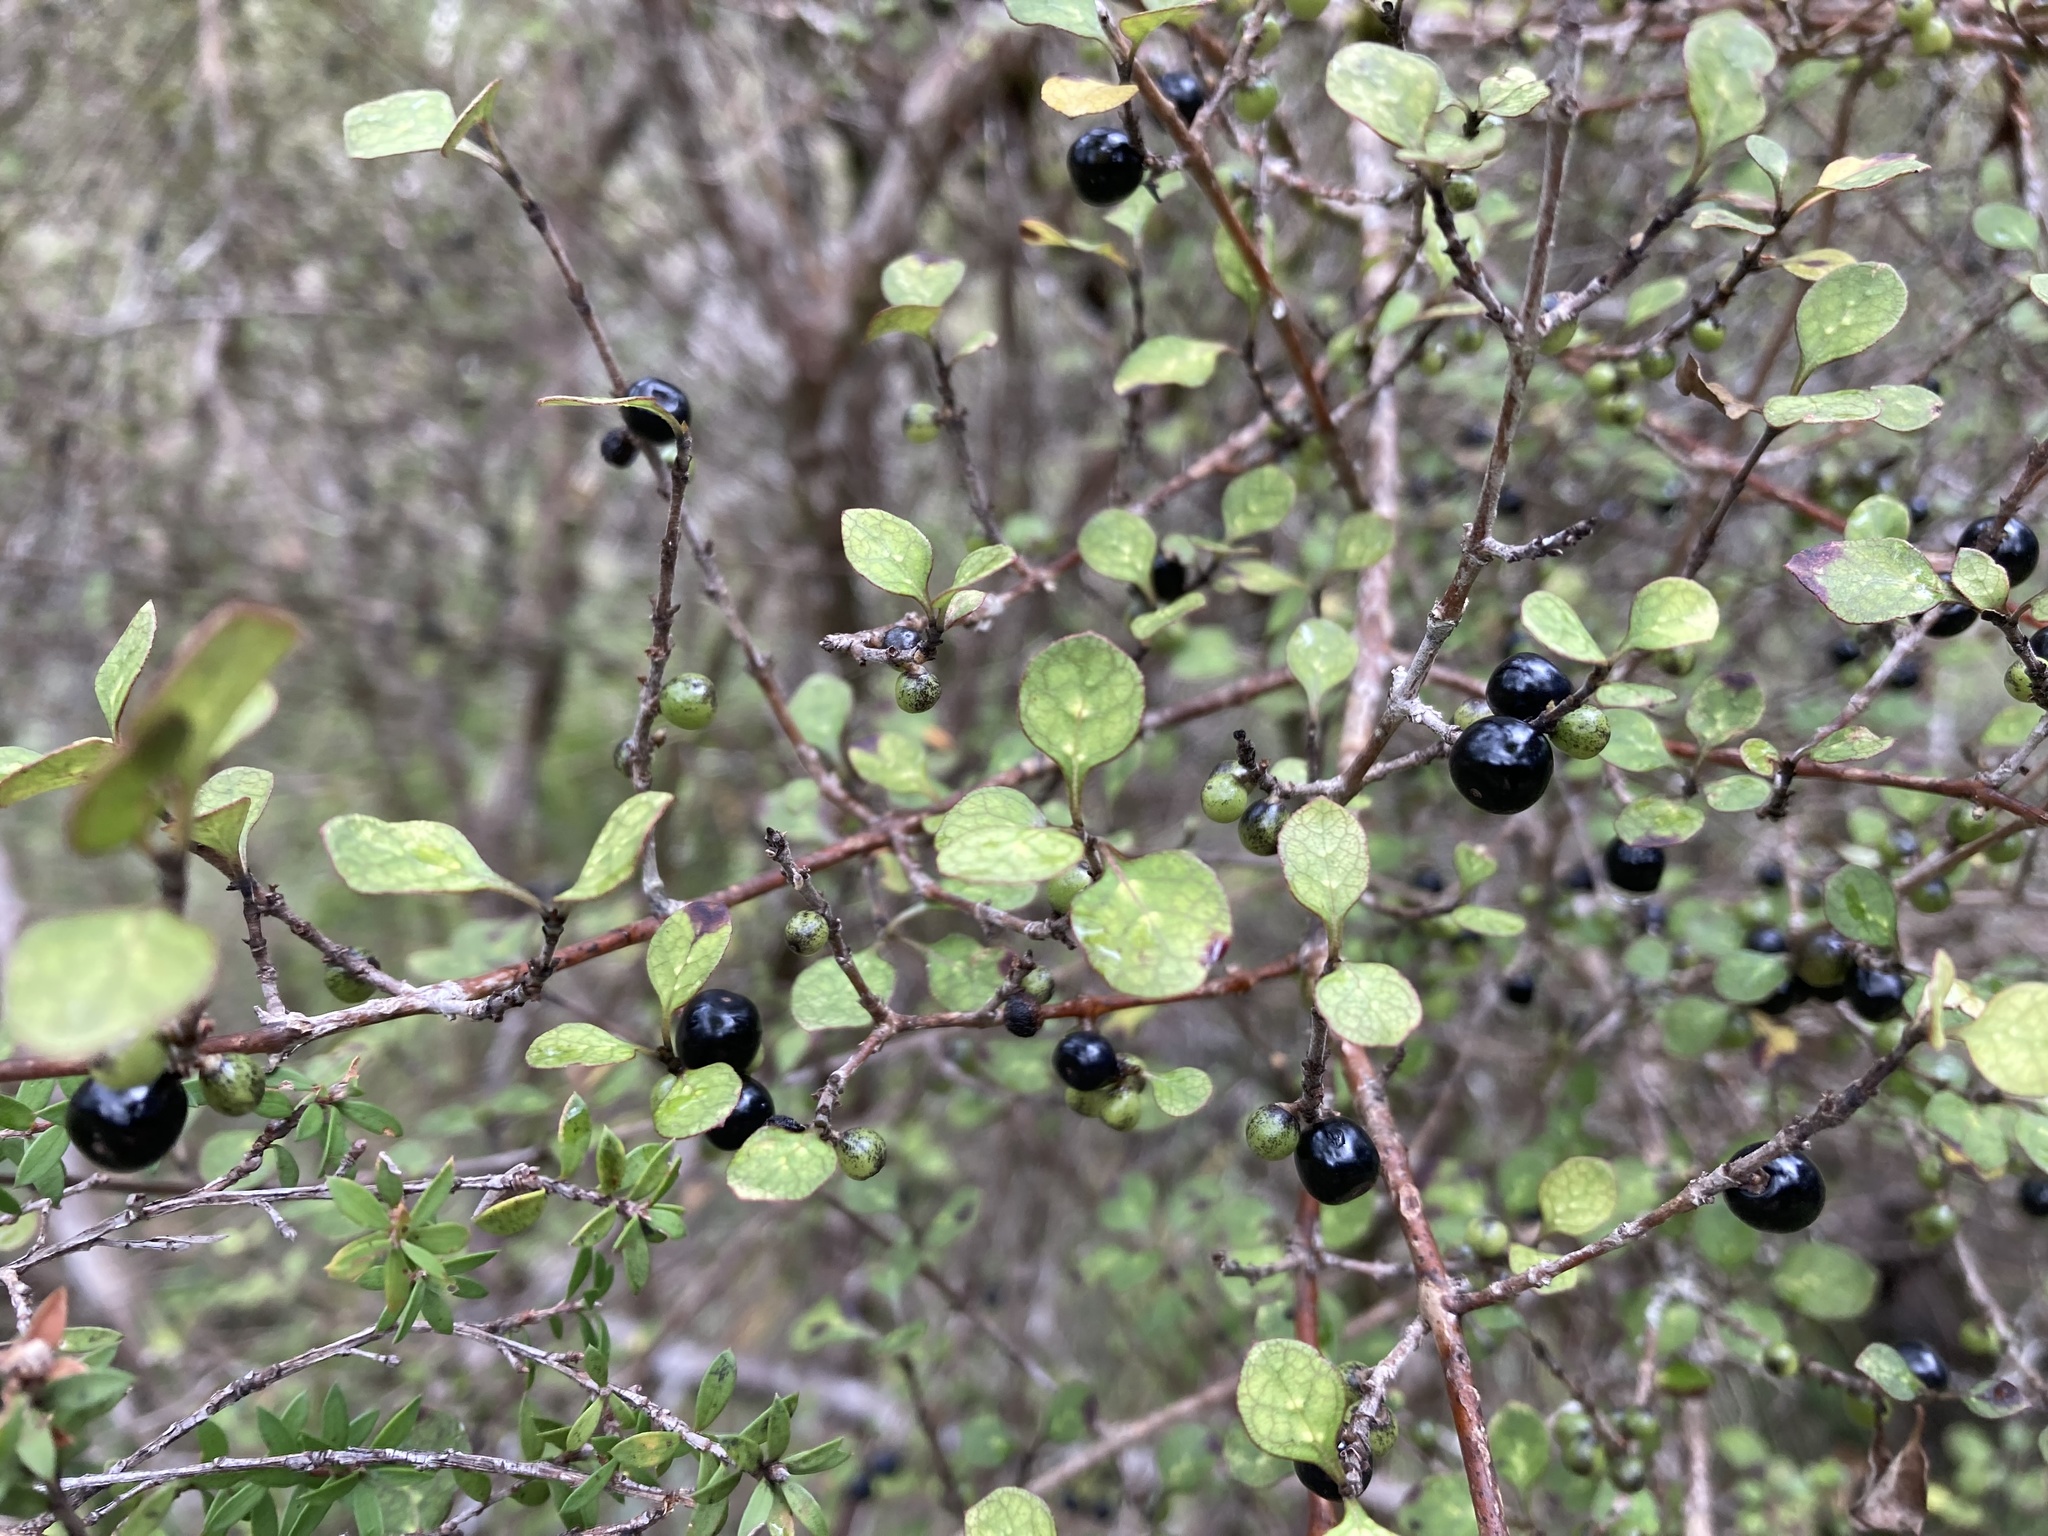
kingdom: Plantae
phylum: Tracheophyta
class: Magnoliopsida
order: Gentianales
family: Rubiaceae
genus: Coprosma
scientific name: Coprosma tenuicaulis
